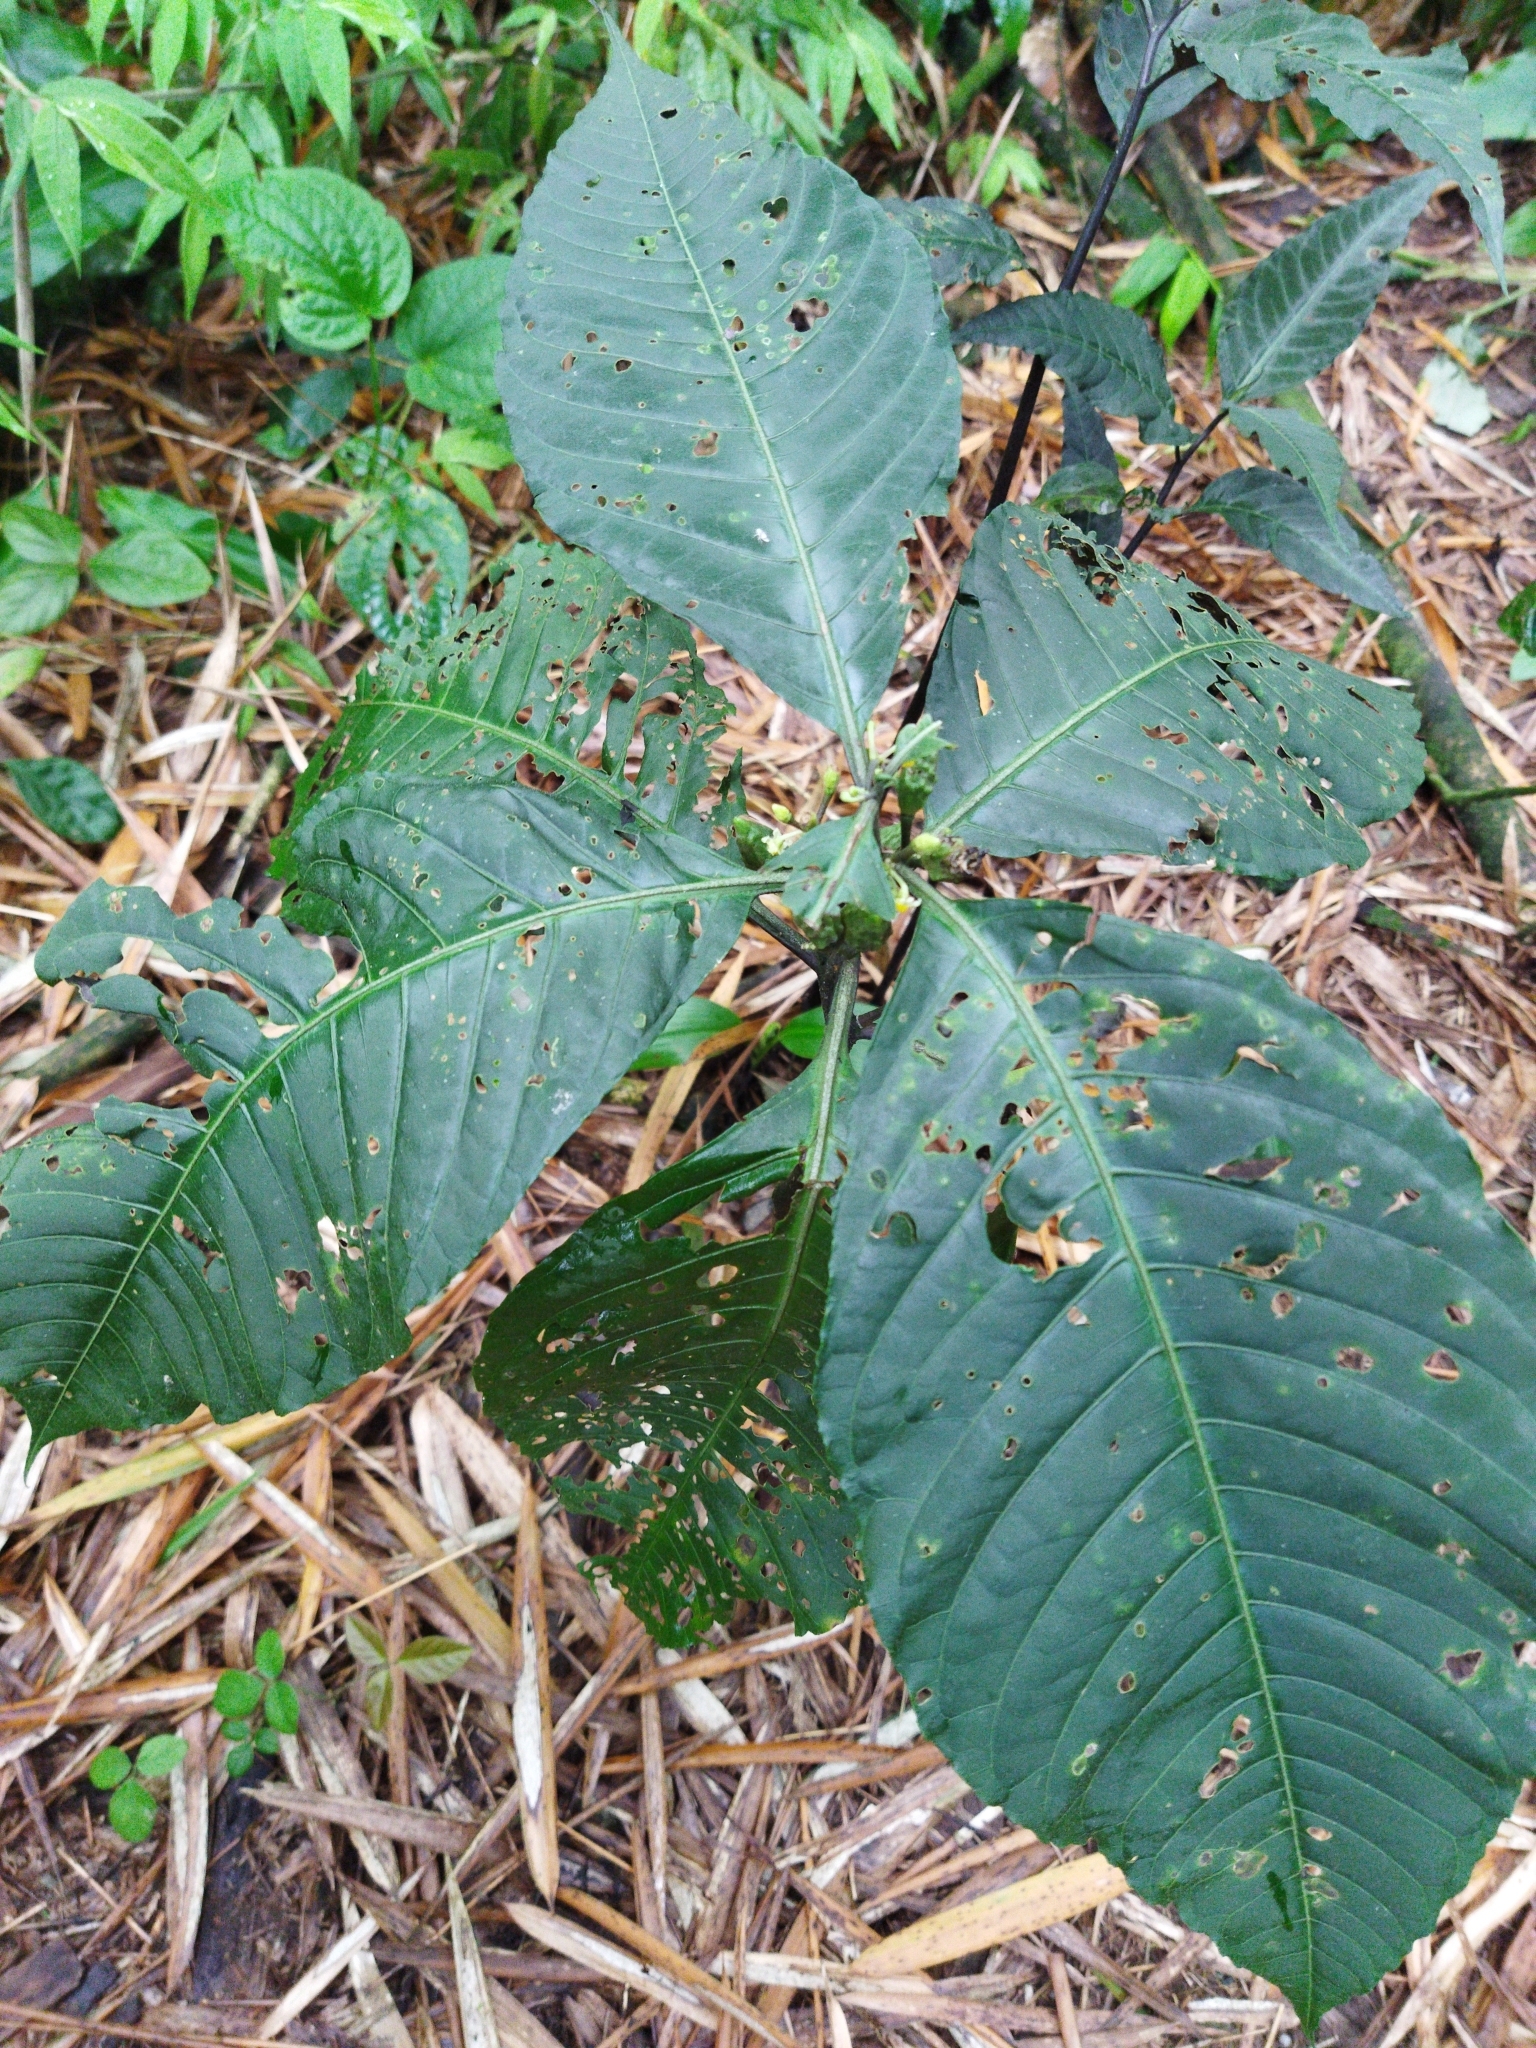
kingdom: Plantae
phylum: Tracheophyta
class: Magnoliopsida
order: Solanales
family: Solanaceae
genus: Solanum
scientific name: Solanum anceps
